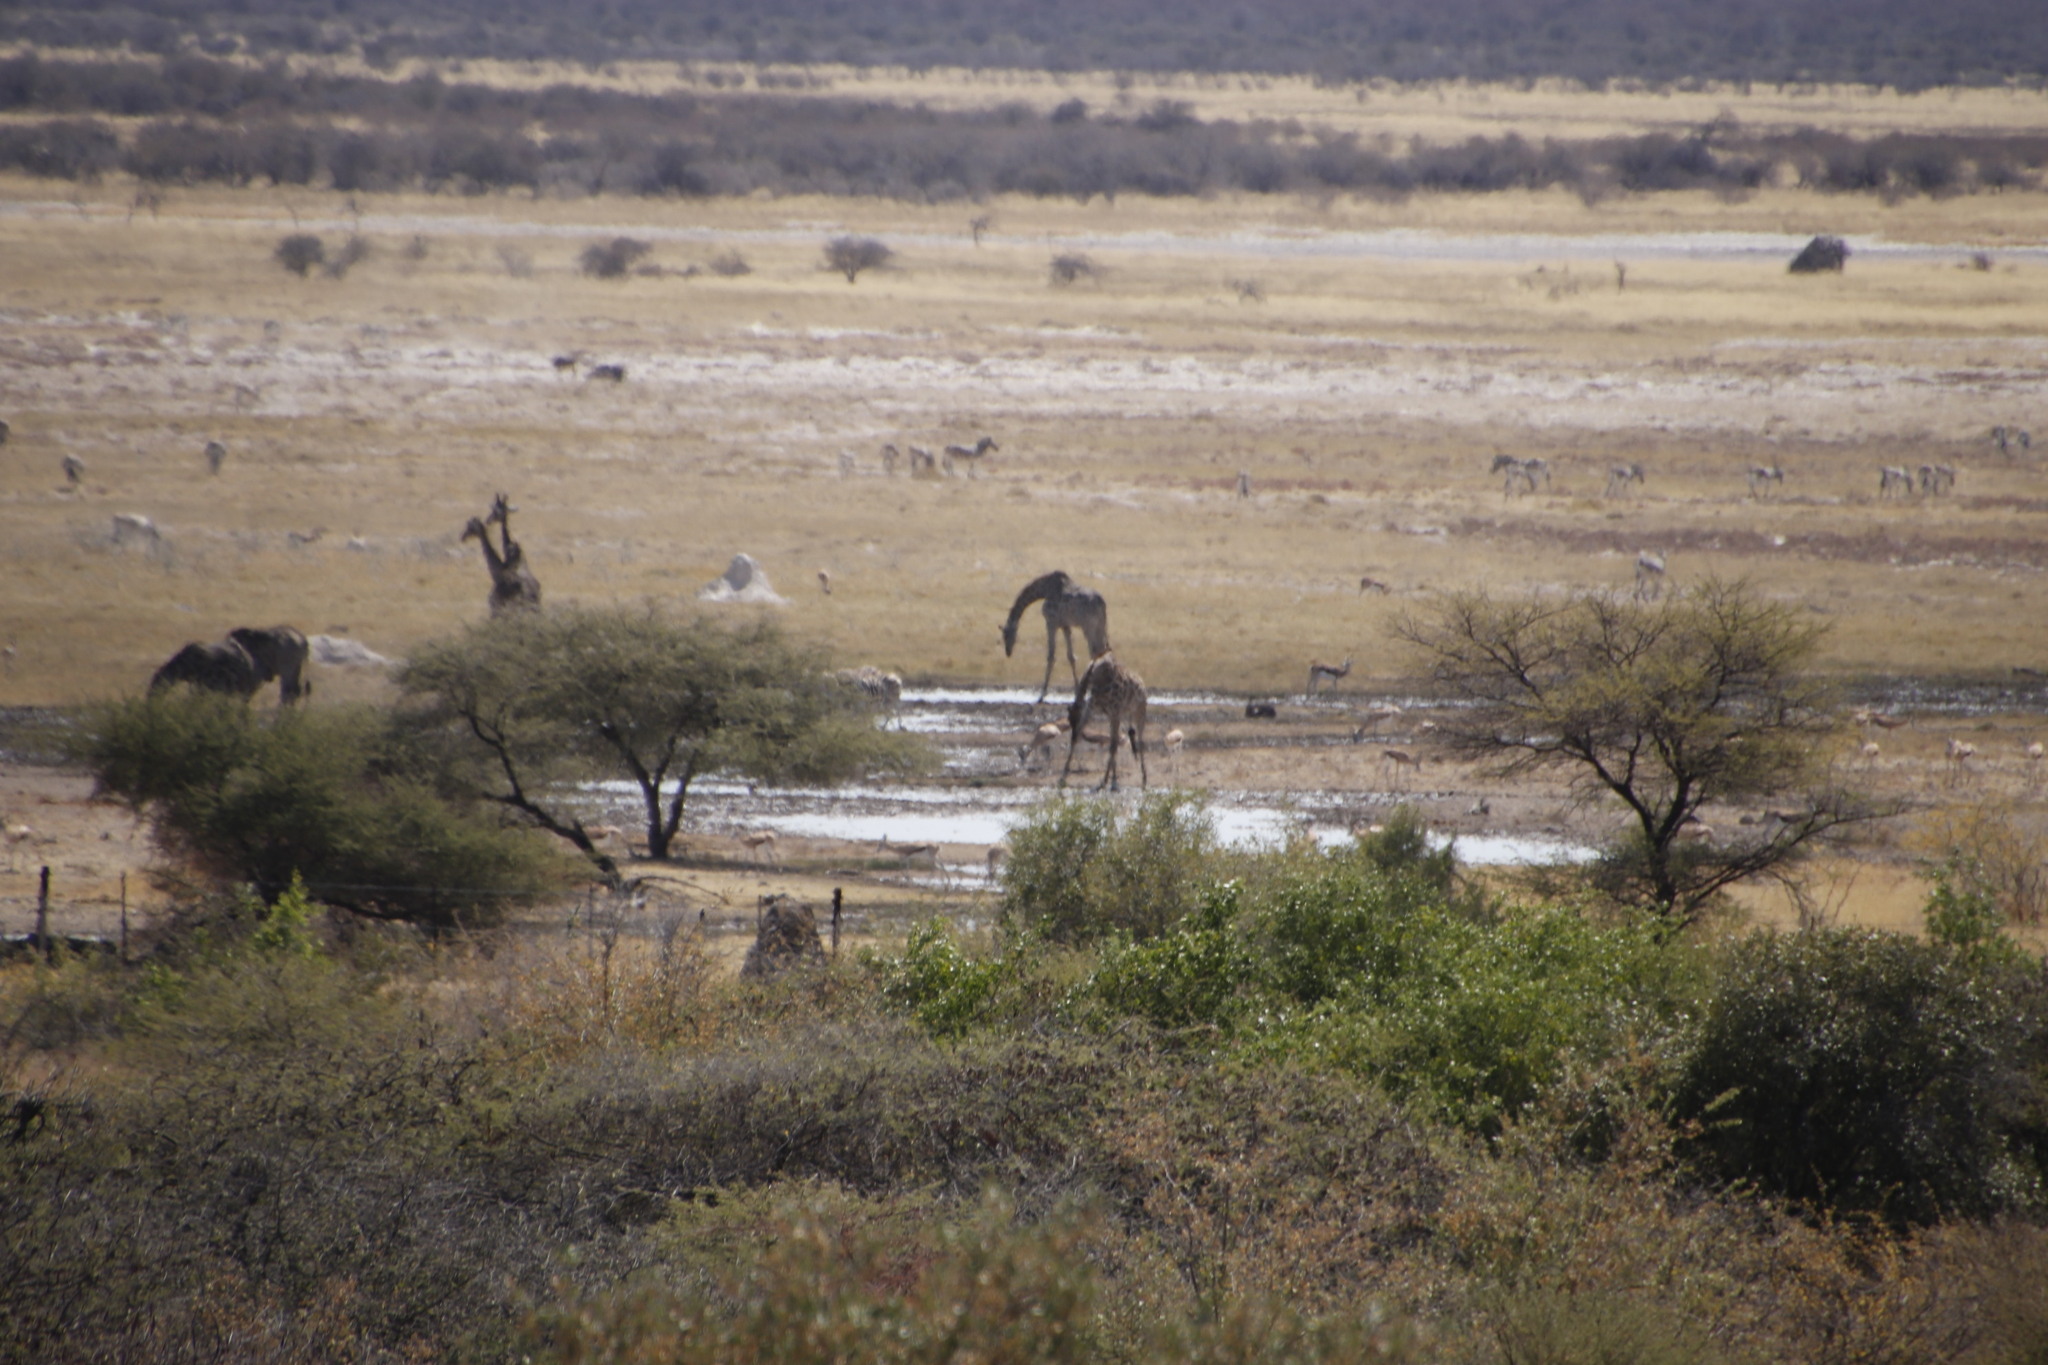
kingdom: Animalia
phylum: Chordata
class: Mammalia
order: Artiodactyla
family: Giraffidae
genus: Giraffa
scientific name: Giraffa giraffa
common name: Southern giraffe
